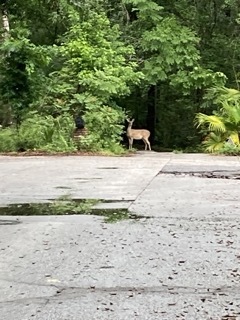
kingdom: Animalia
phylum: Chordata
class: Mammalia
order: Artiodactyla
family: Cervidae
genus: Odocoileus
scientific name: Odocoileus virginianus
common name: White-tailed deer
